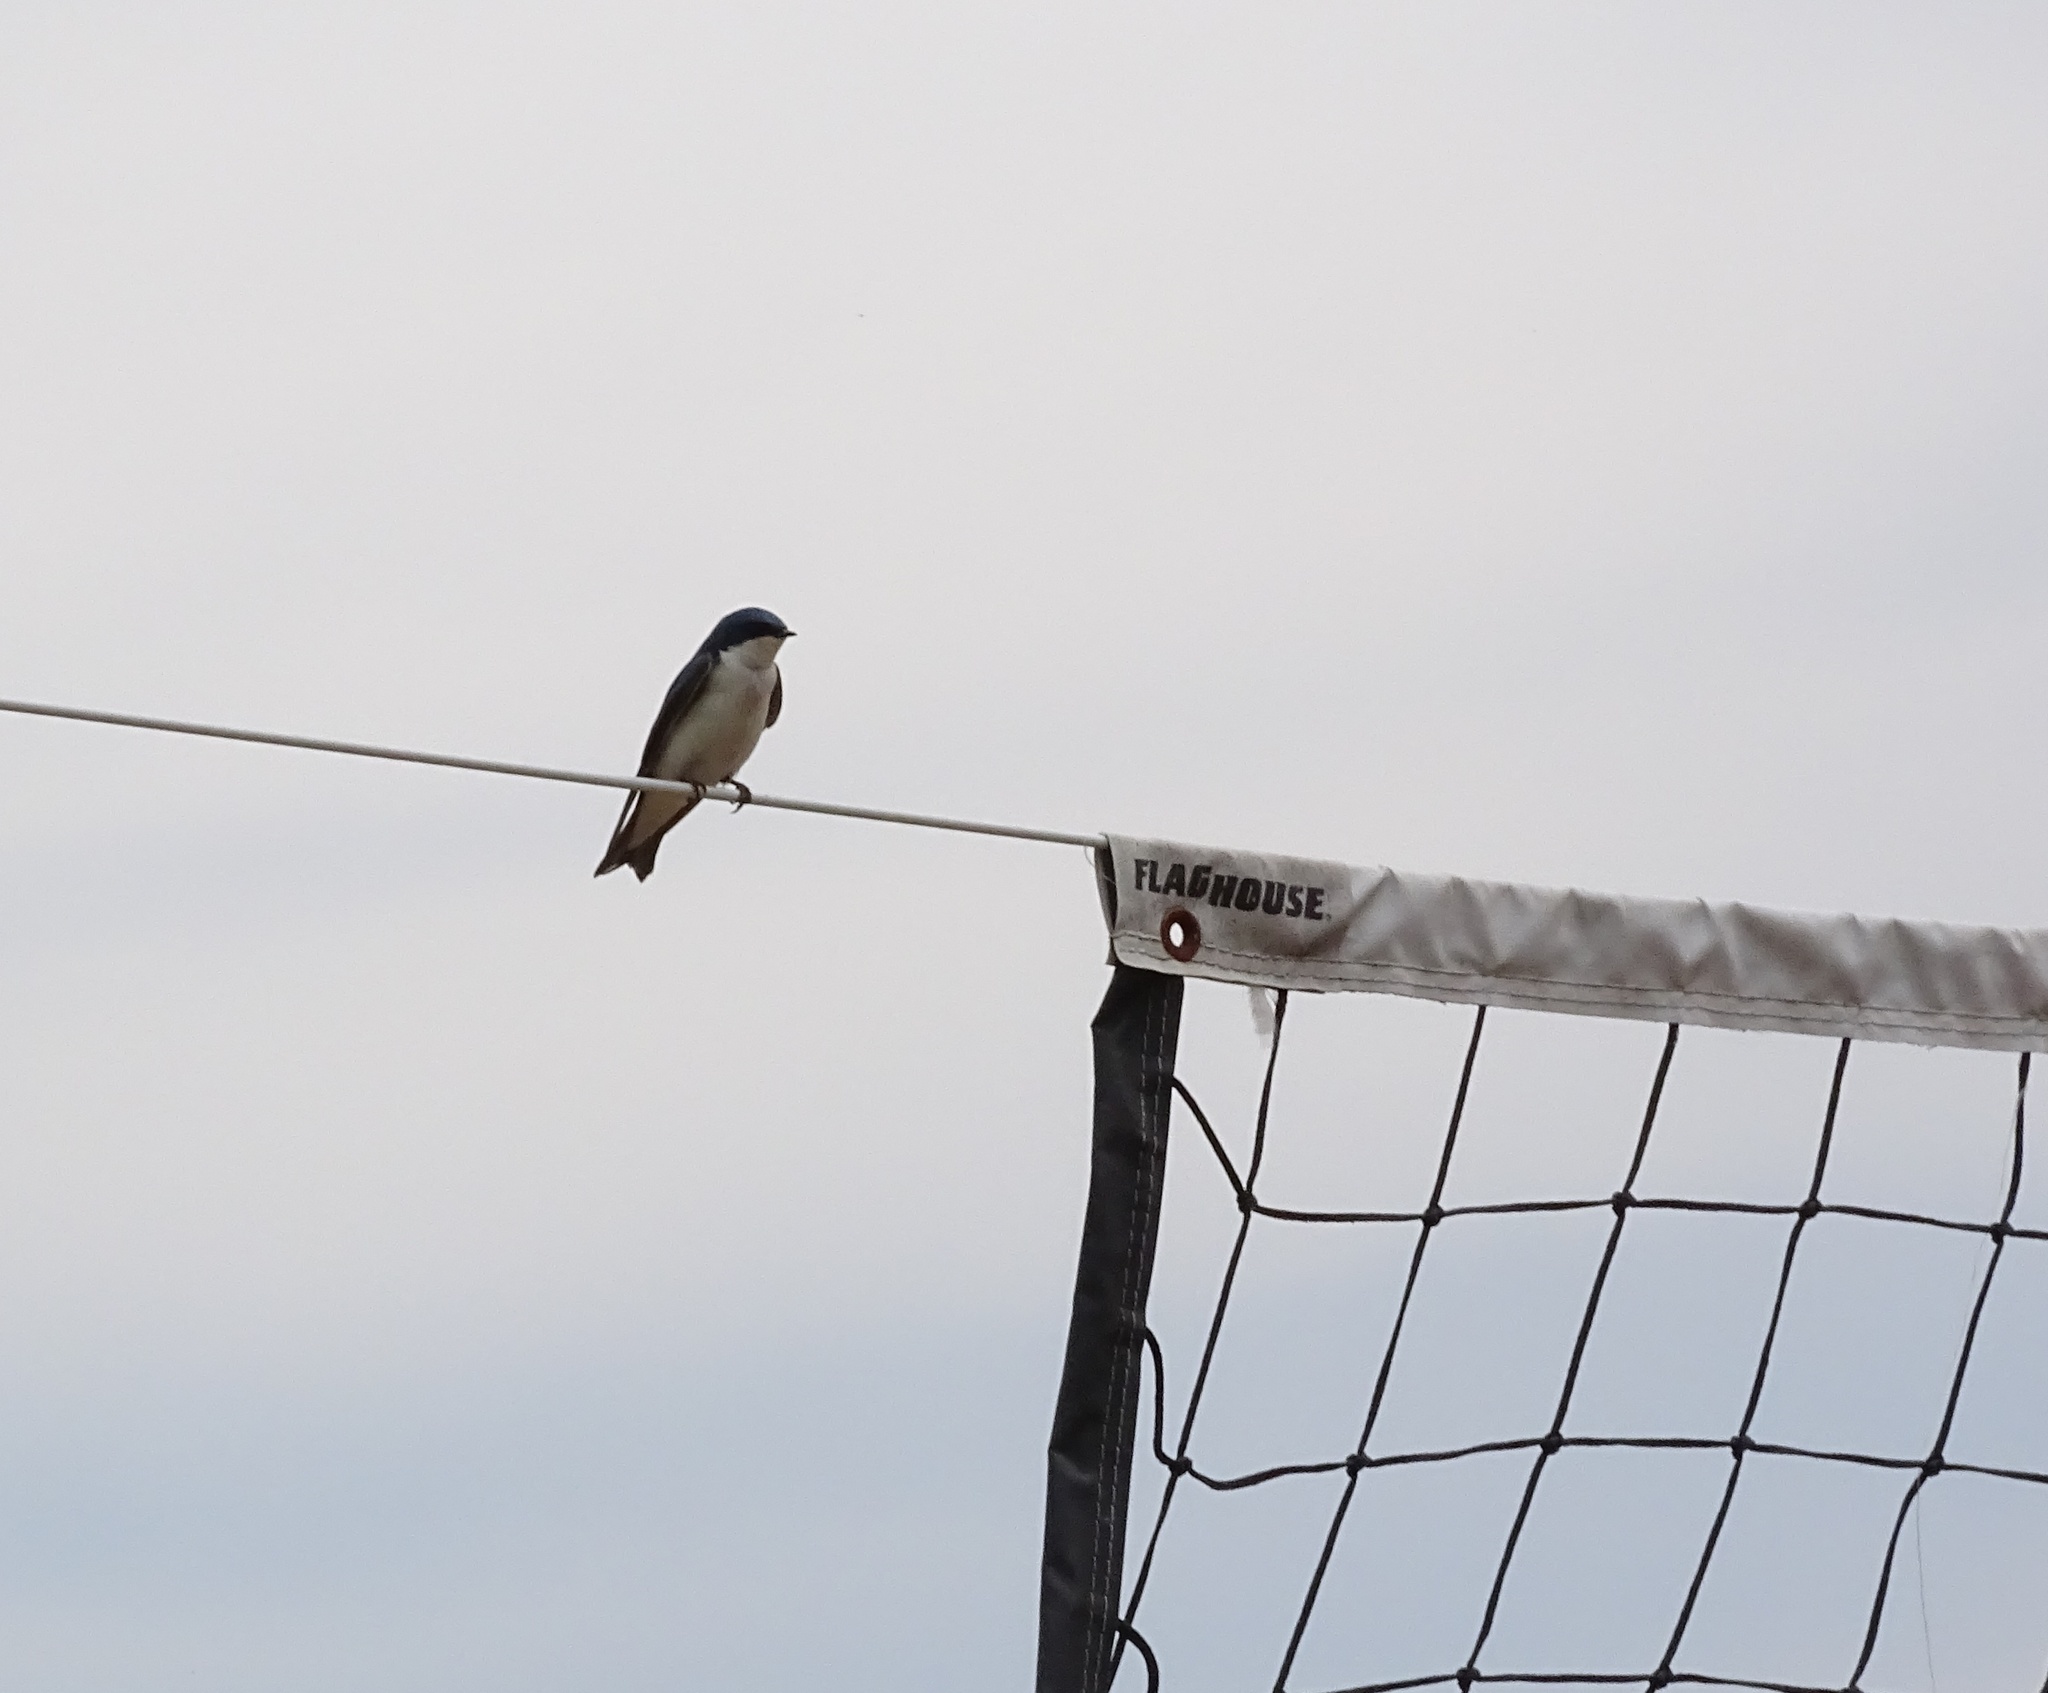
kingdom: Animalia
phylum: Chordata
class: Aves
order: Passeriformes
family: Hirundinidae
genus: Tachycineta
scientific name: Tachycineta bicolor
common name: Tree swallow
